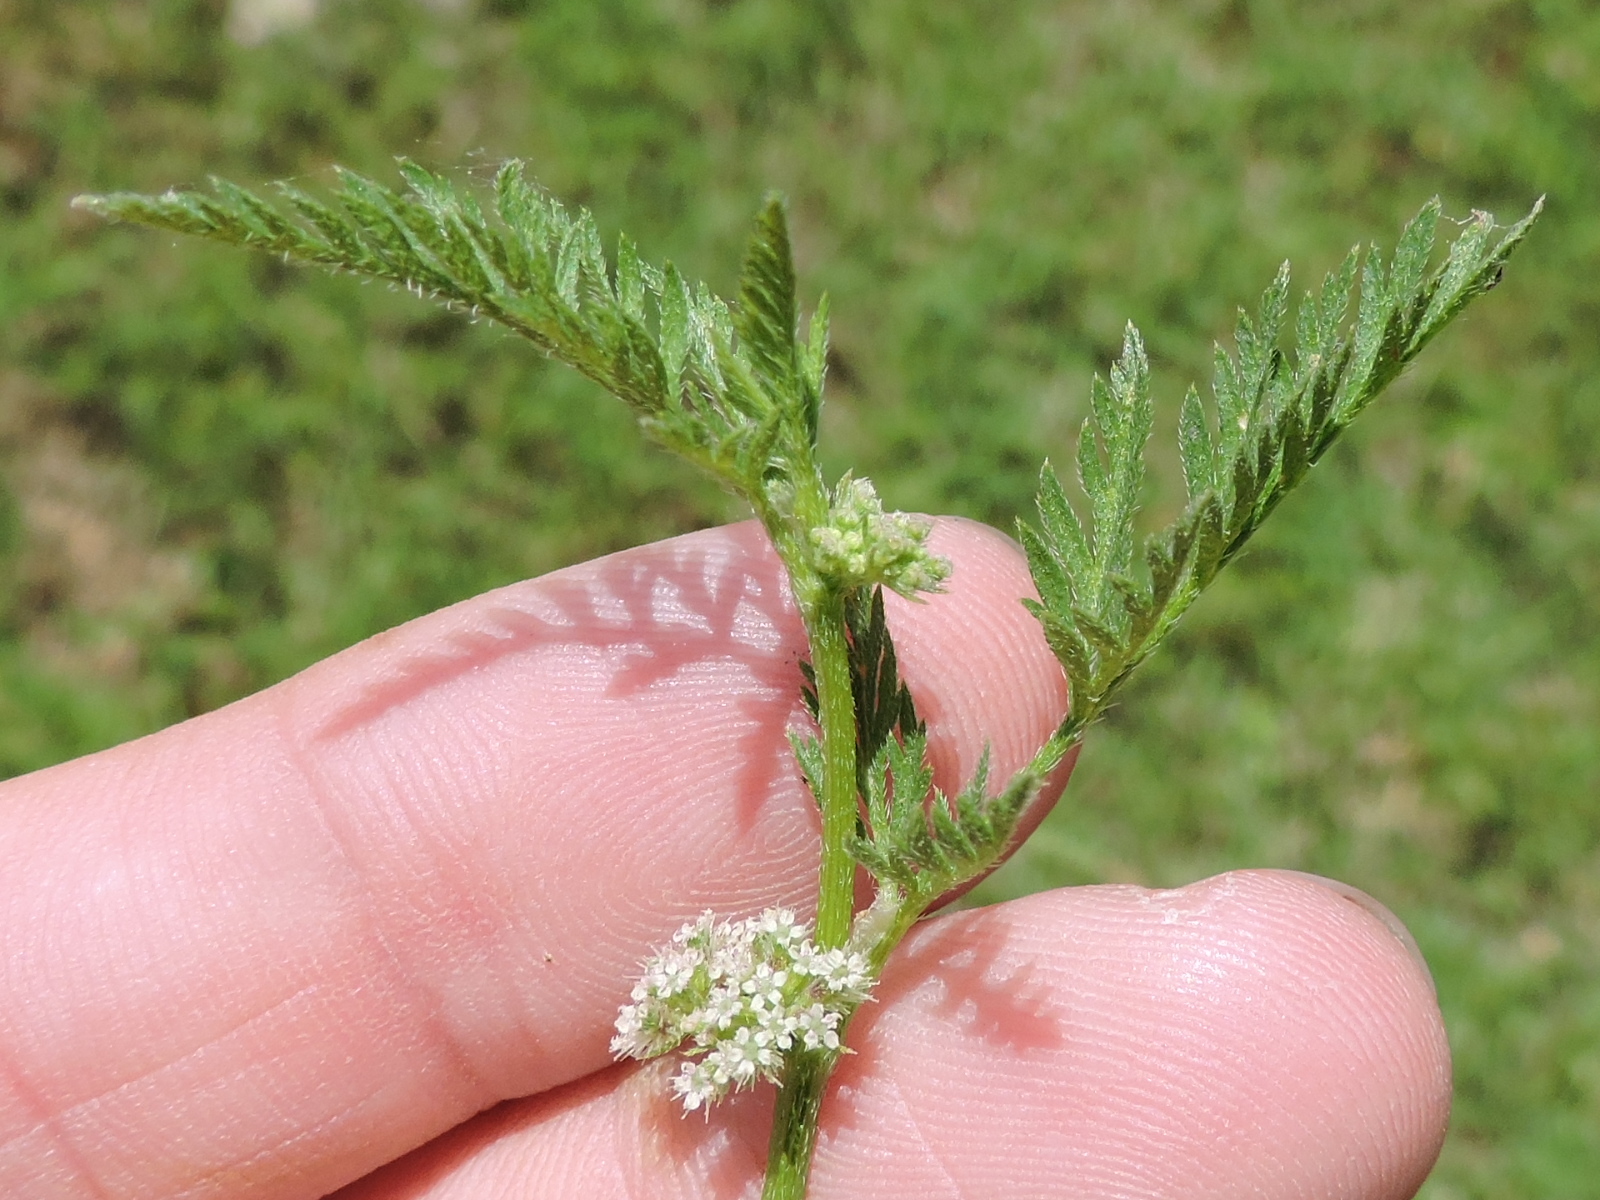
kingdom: Plantae
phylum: Tracheophyta
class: Magnoliopsida
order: Apiales
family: Apiaceae
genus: Torilis
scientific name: Torilis nodosa
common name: Knotted hedge-parsley
